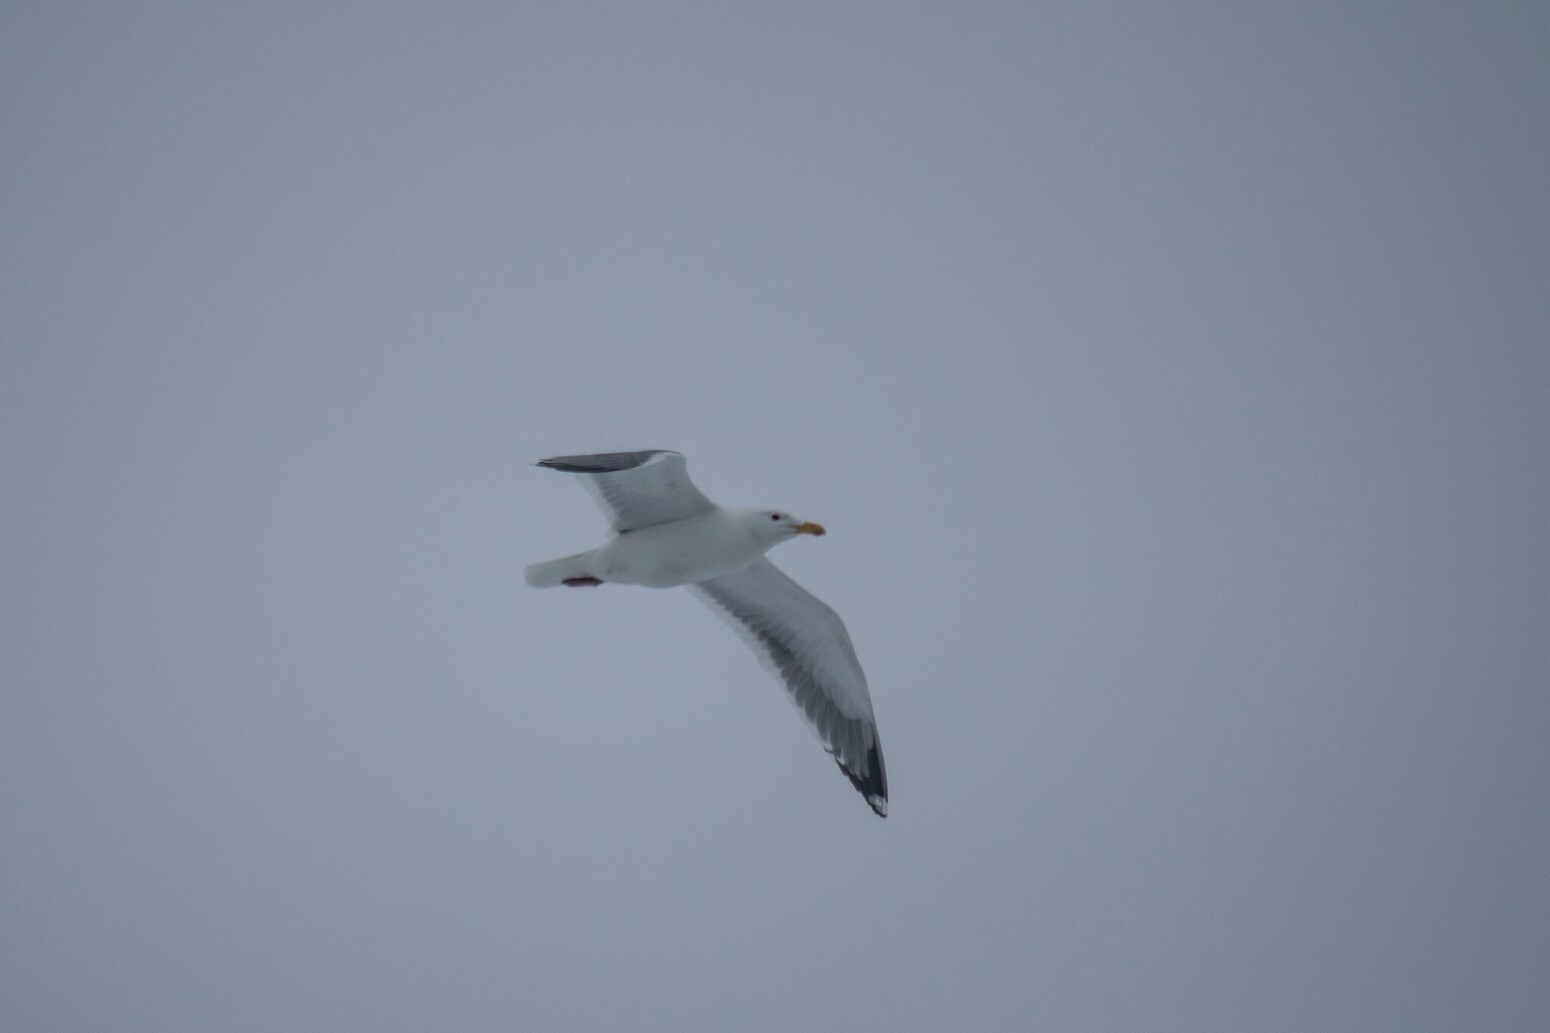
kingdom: Animalia
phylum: Chordata
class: Aves
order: Charadriiformes
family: Laridae
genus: Larus
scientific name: Larus vegae
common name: Vega gull
